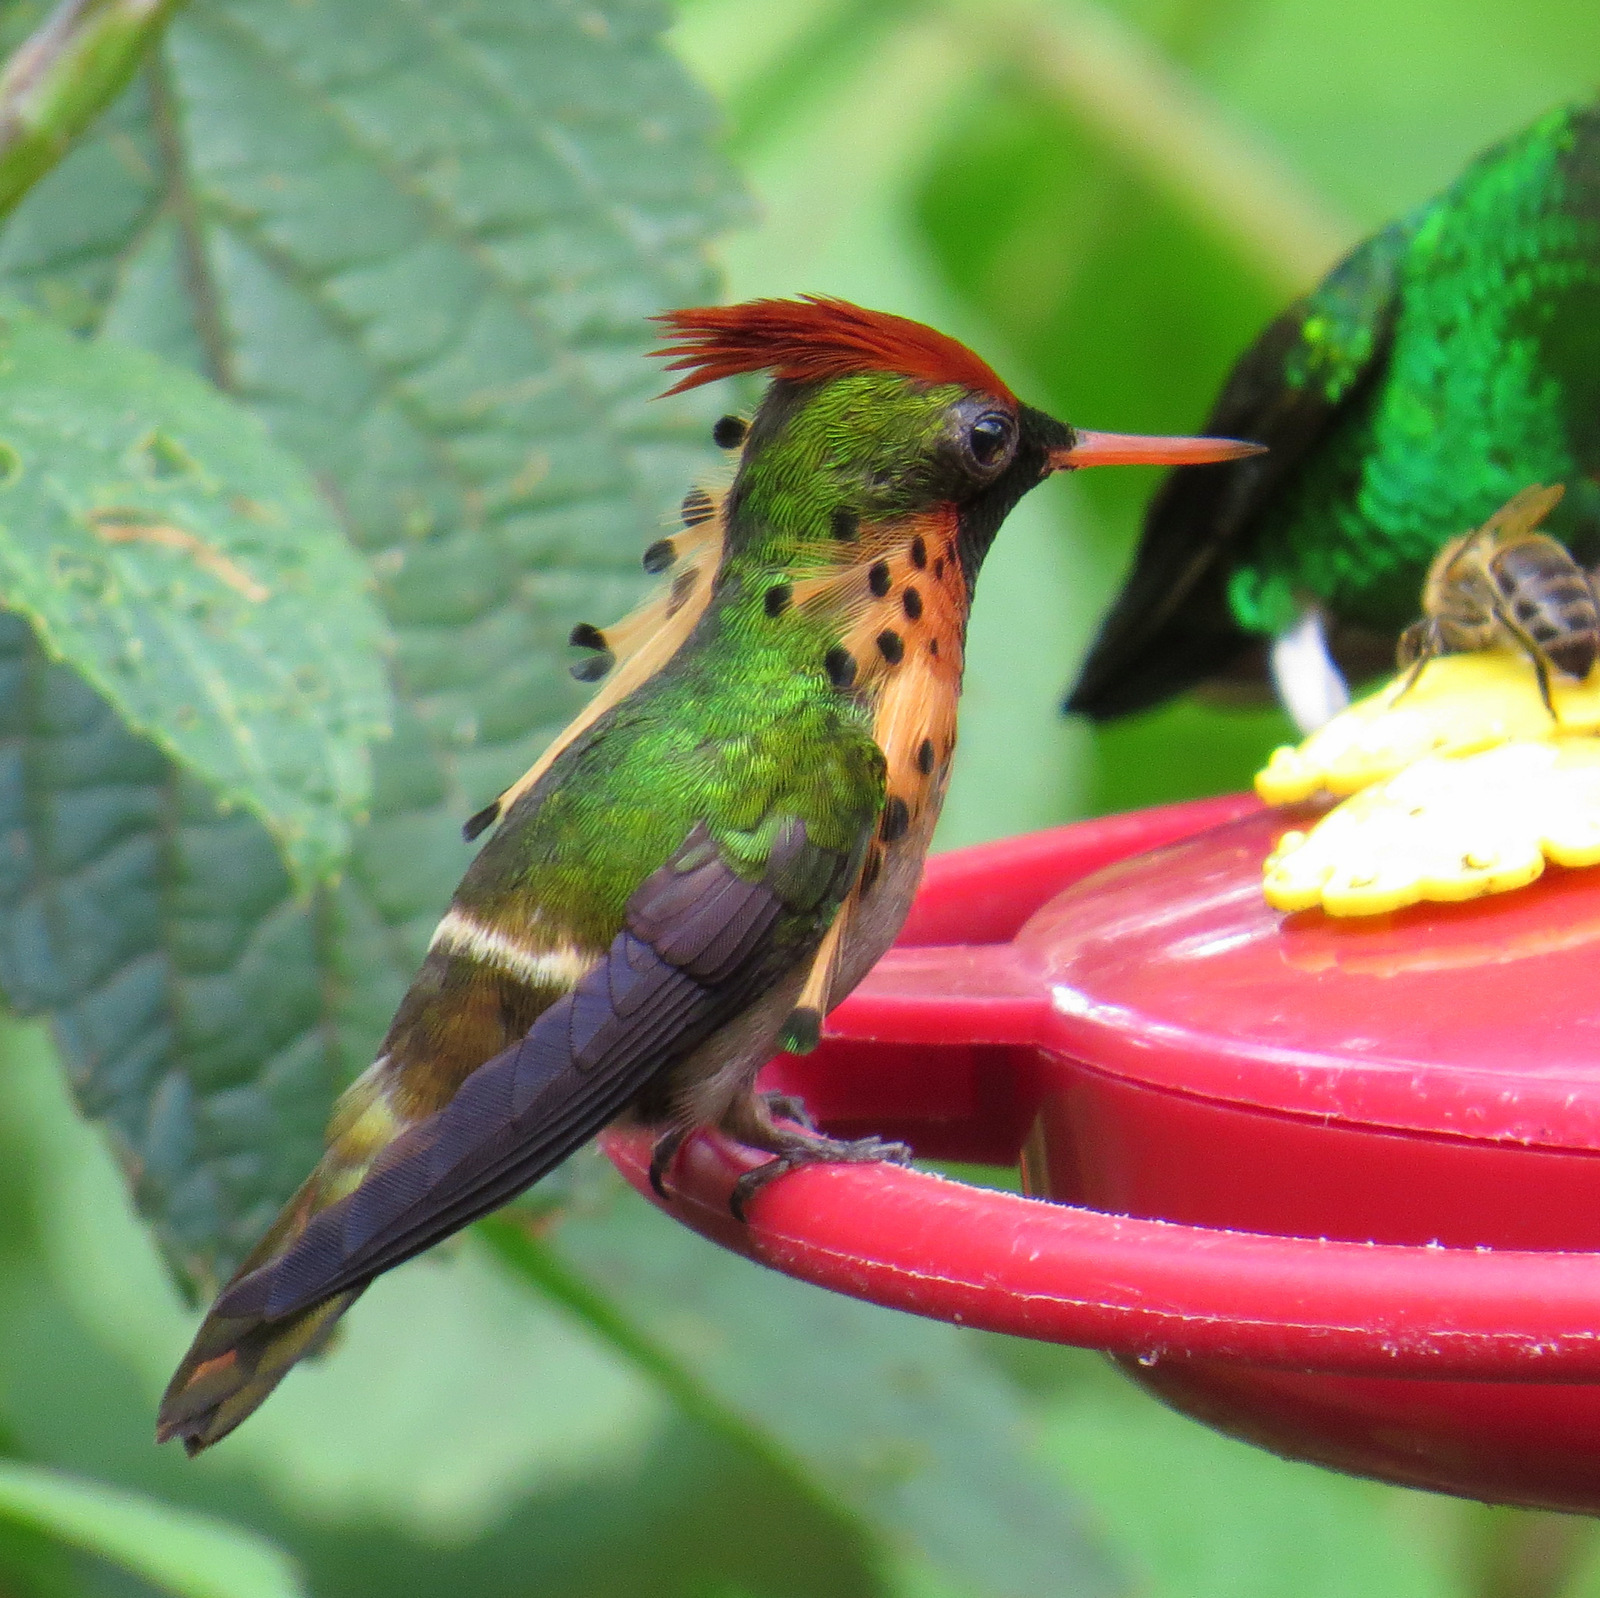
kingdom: Animalia
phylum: Chordata
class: Aves
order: Apodiformes
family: Trochilidae
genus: Lophornis
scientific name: Lophornis ornatus
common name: Tufted coquette
